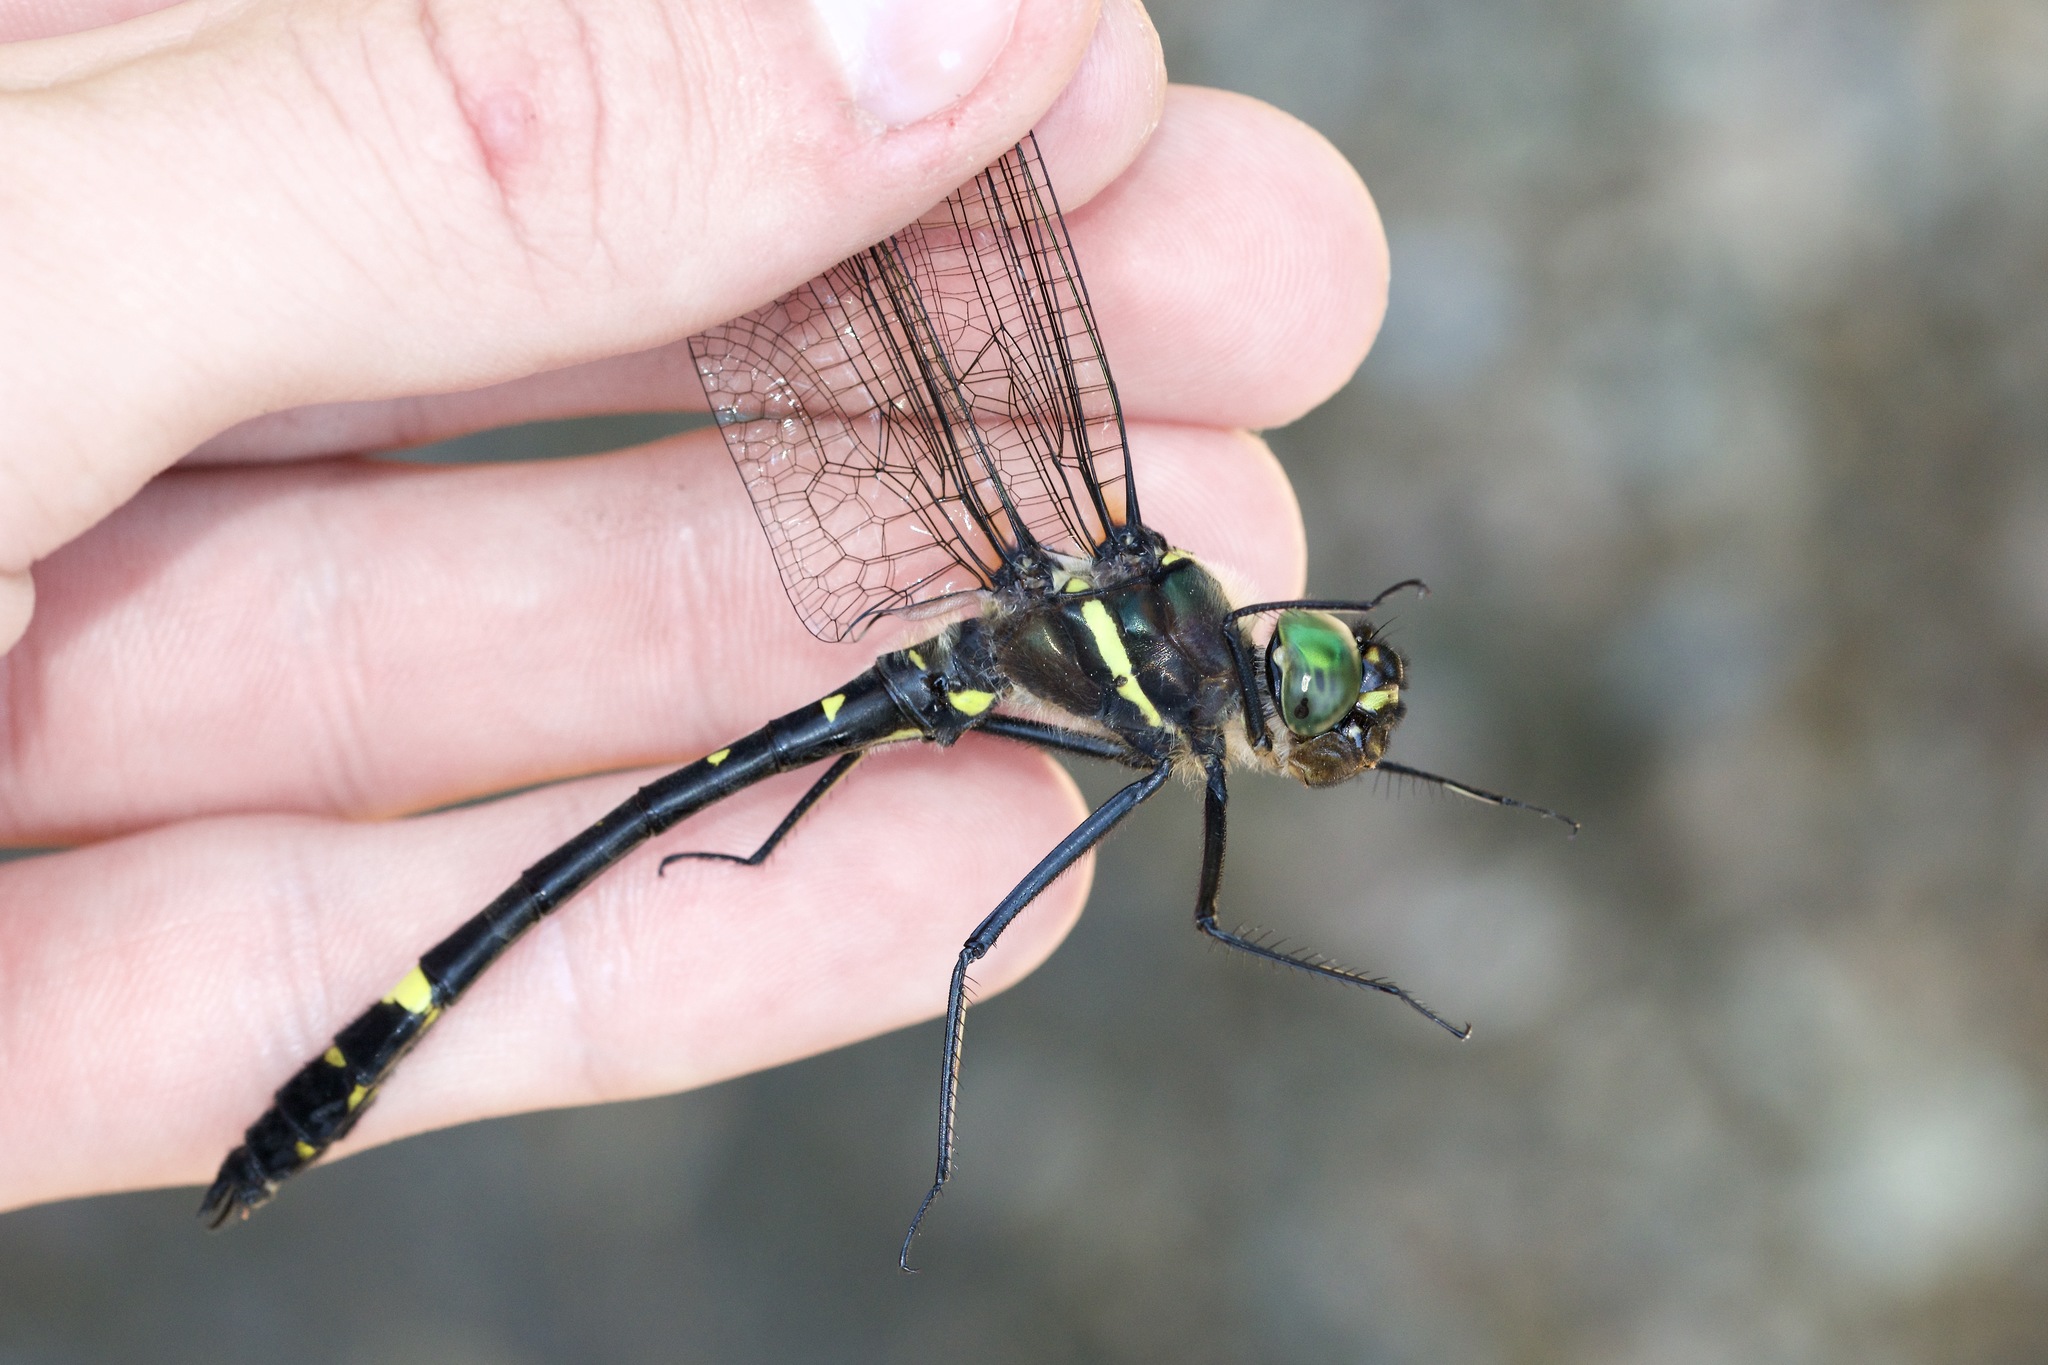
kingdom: Animalia
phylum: Arthropoda
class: Insecta
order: Odonata
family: Macromiidae
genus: Macromia
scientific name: Macromia illinoiensis
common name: Swift river cruiser
